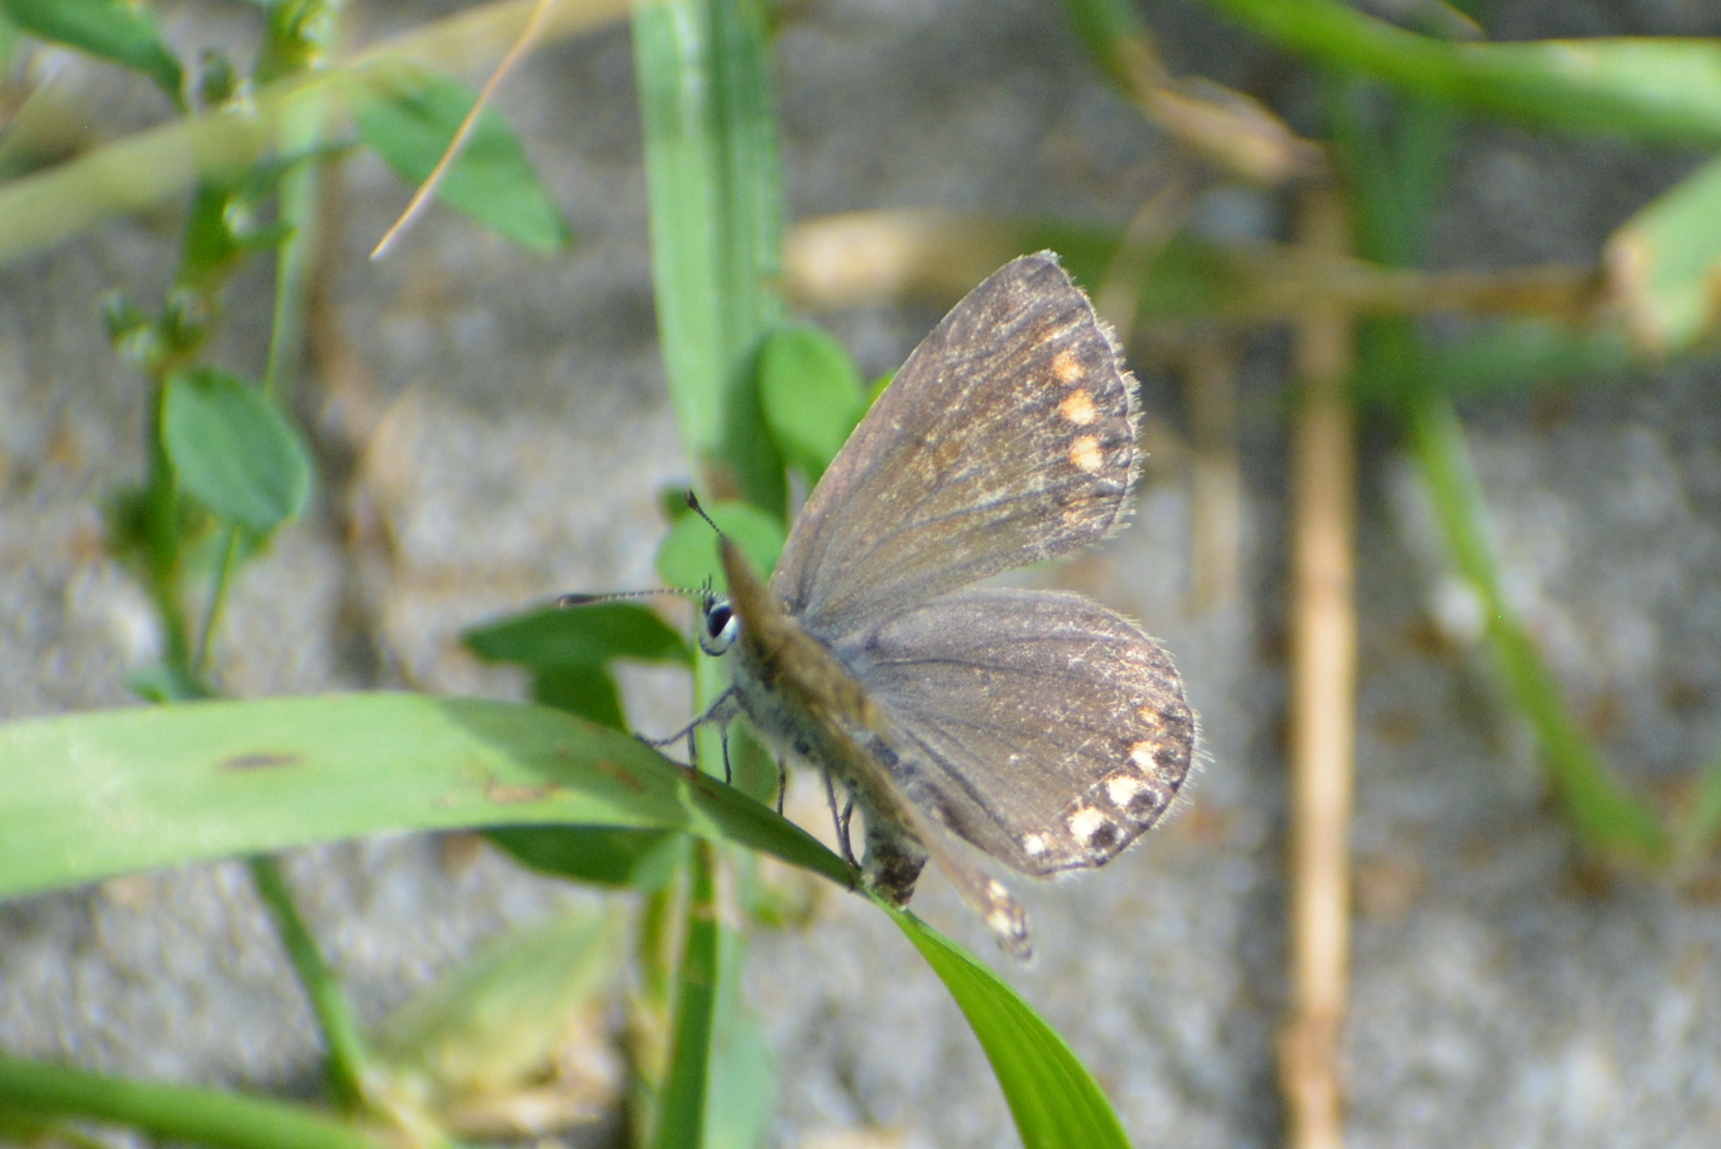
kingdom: Animalia
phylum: Arthropoda
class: Insecta
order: Lepidoptera
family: Lycaenidae
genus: Polyommatus
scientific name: Polyommatus icarus
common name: Common blue
